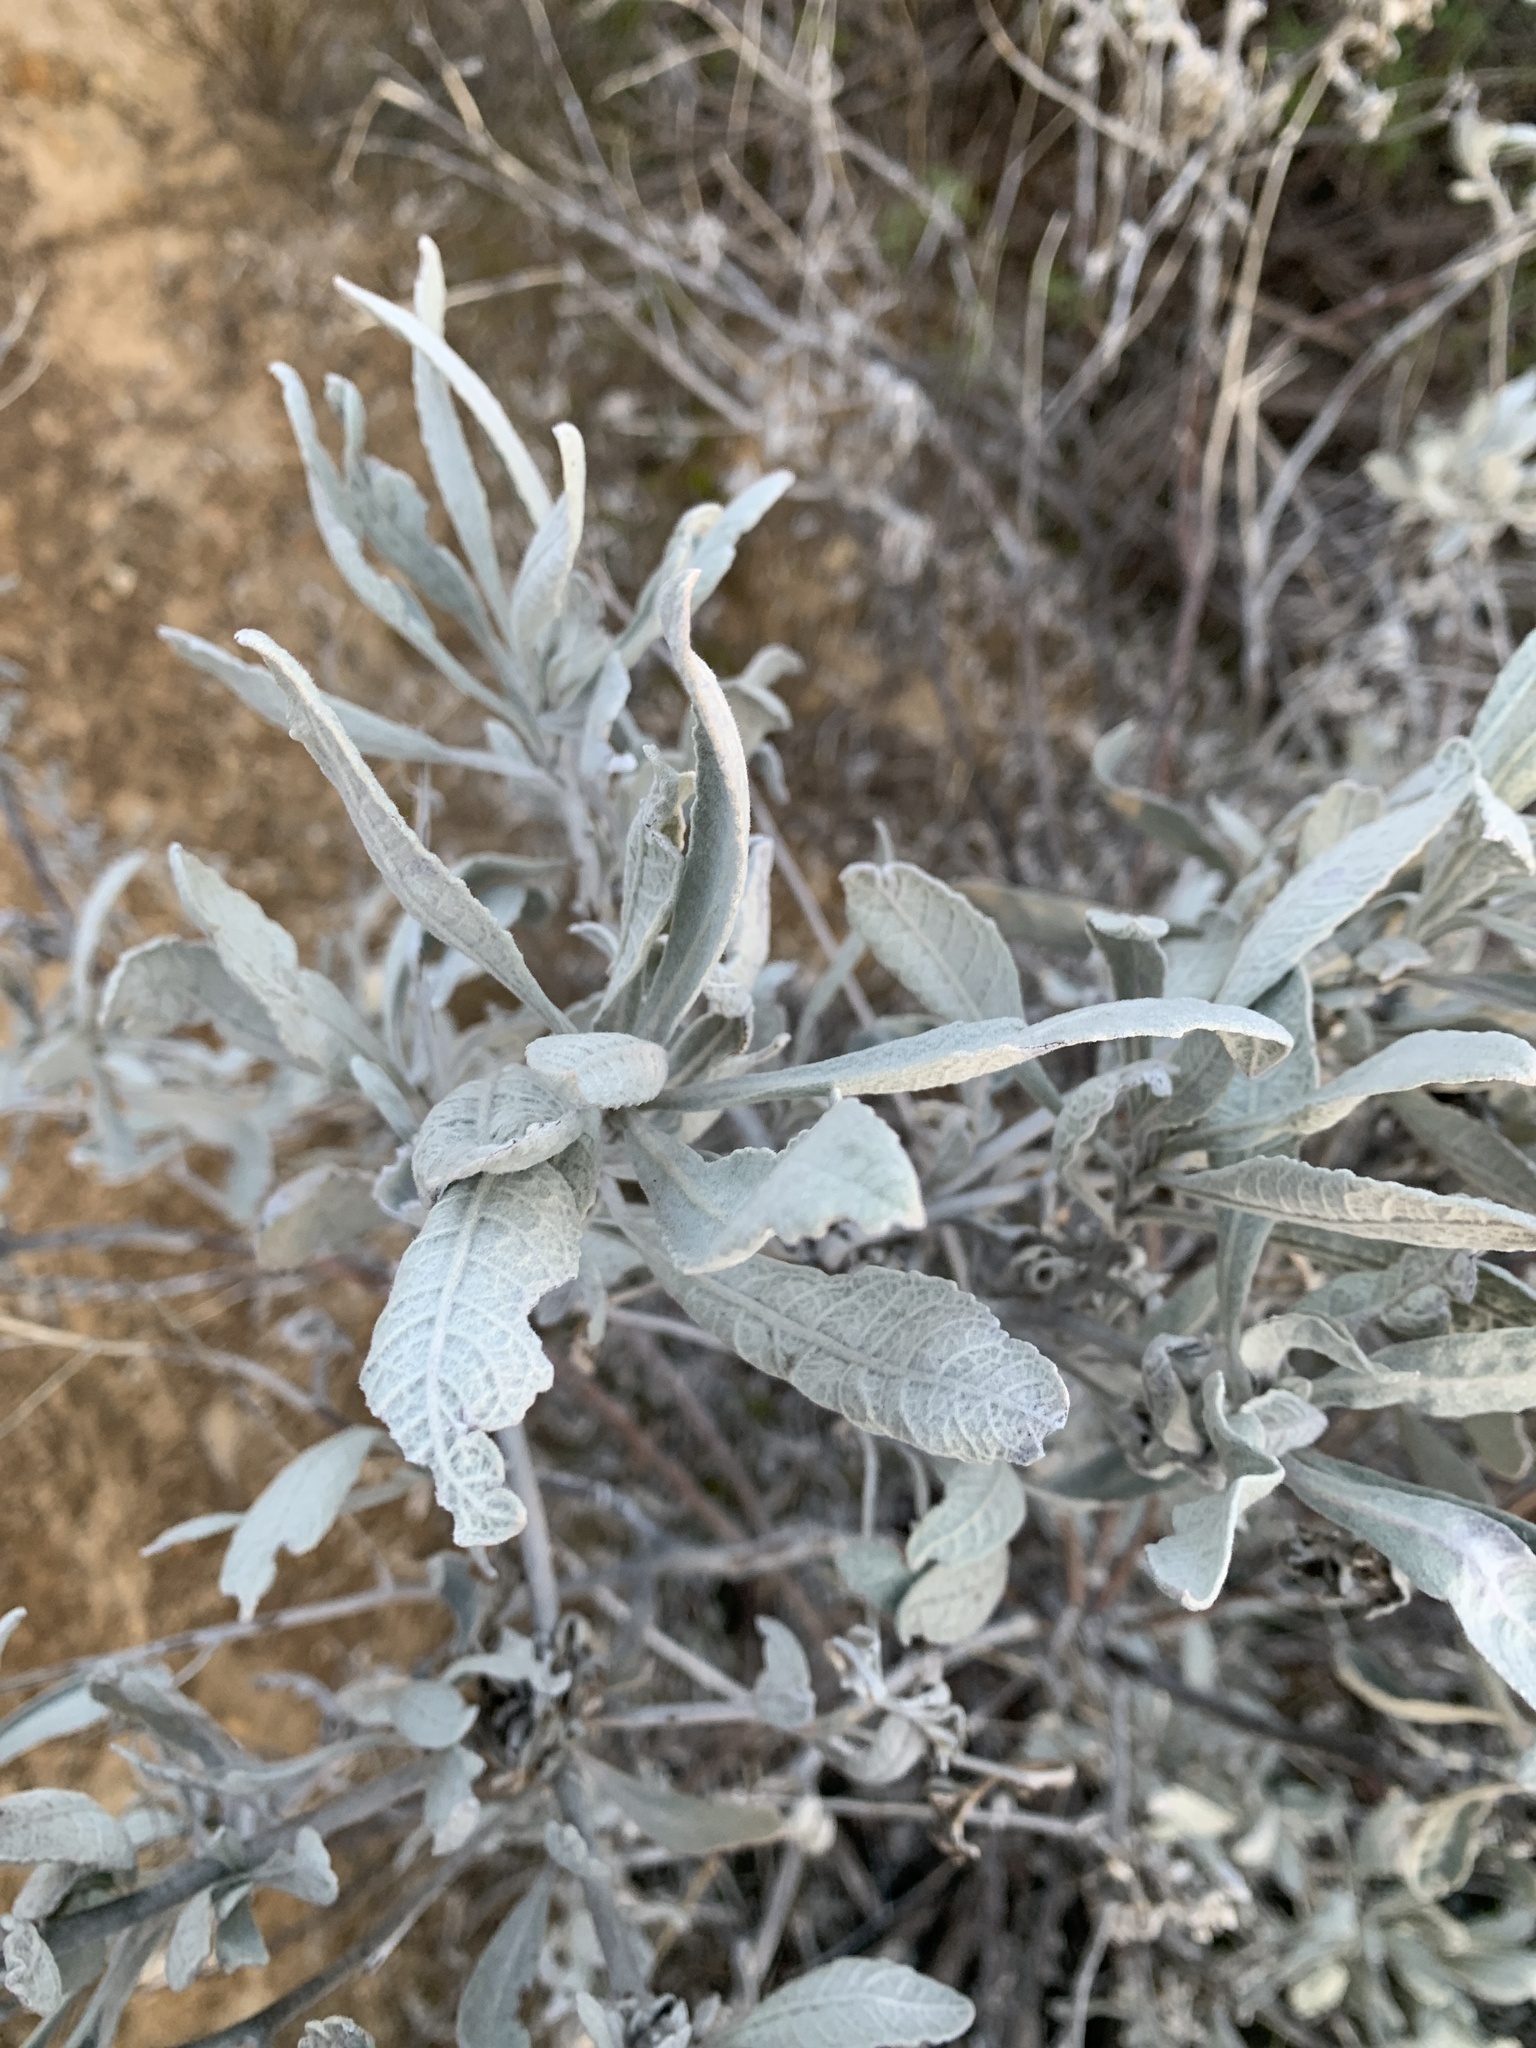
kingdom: Plantae
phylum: Tracheophyta
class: Magnoliopsida
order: Boraginales
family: Namaceae
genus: Eriodictyon
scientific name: Eriodictyon tomentosum
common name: Woolly yerba-santa
